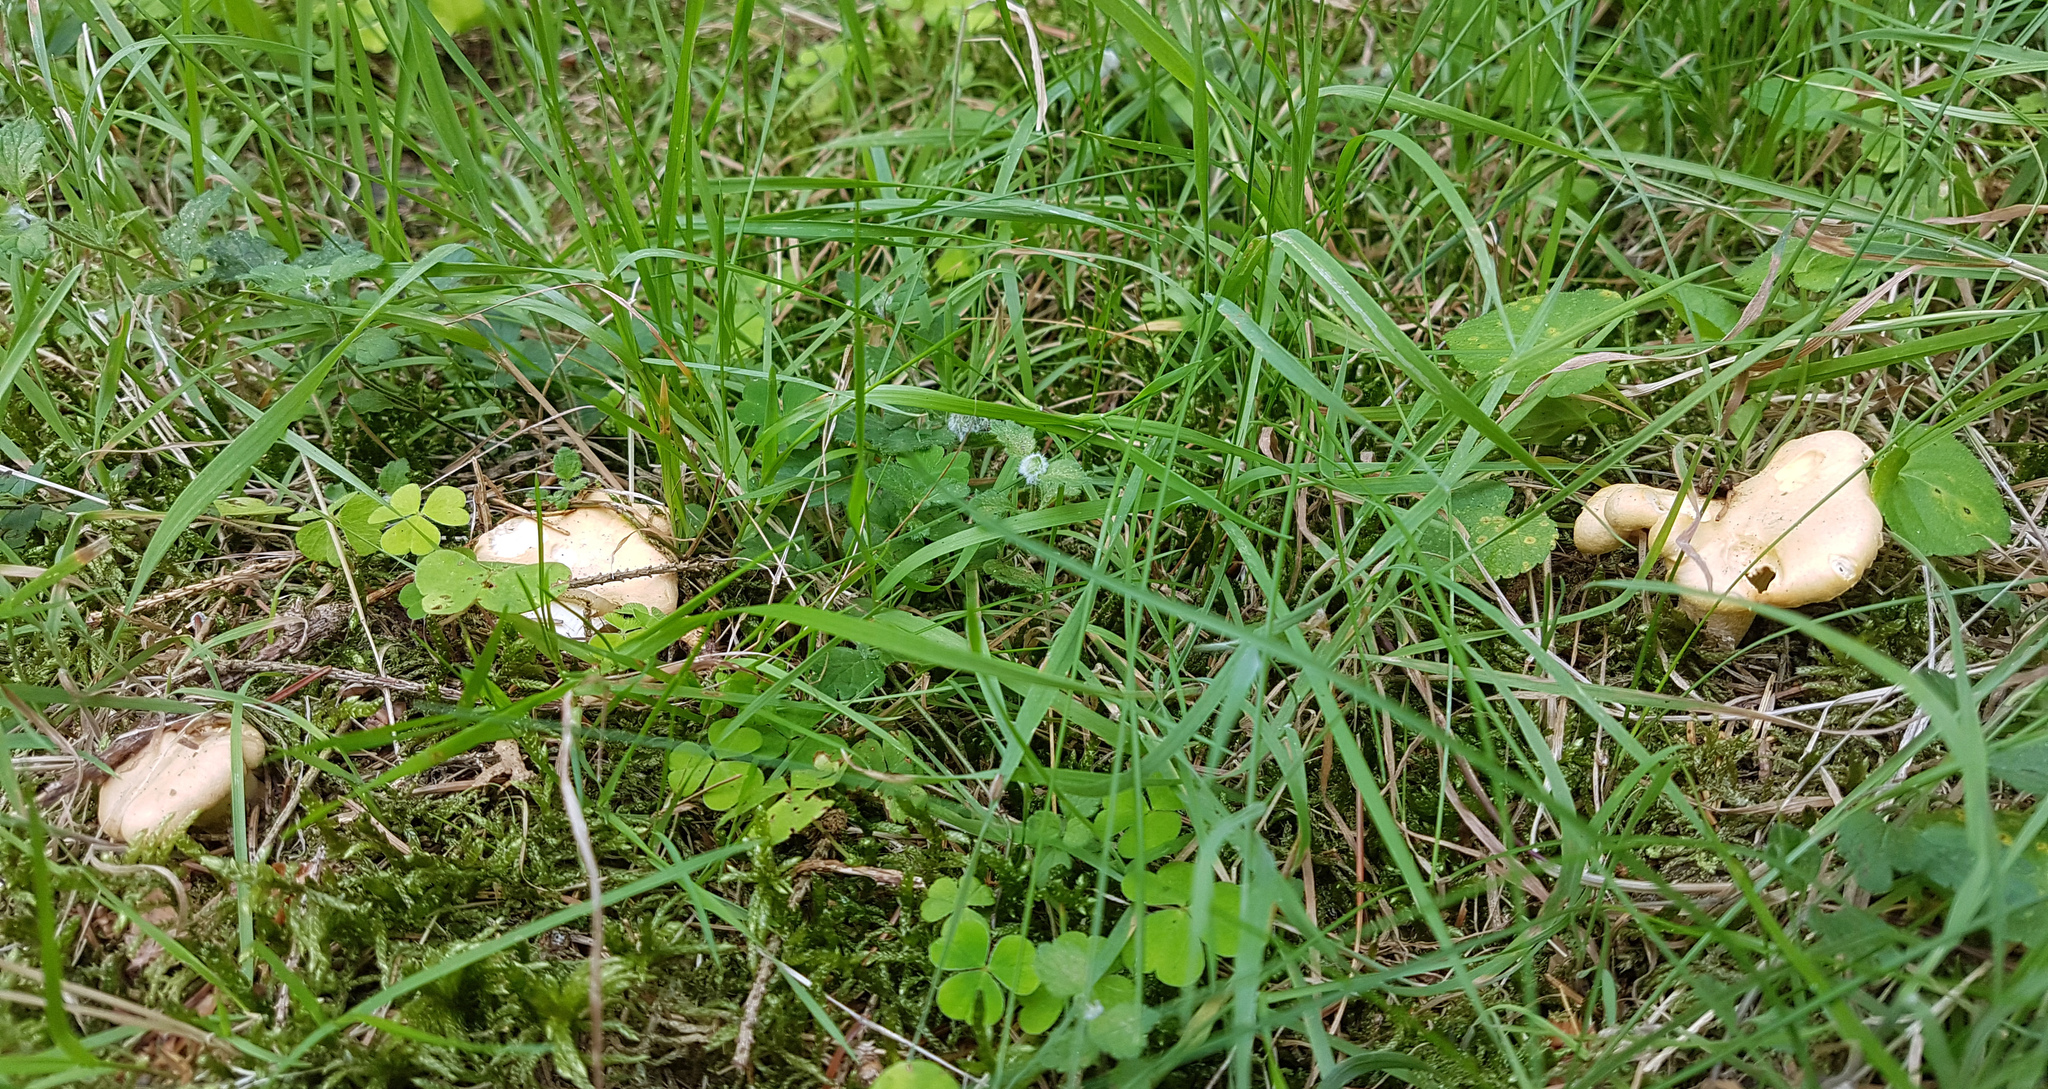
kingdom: Fungi
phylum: Basidiomycota
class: Agaricomycetes
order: Cantharellales
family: Hydnaceae
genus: Cantharellus
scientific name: Cantharellus pallens
